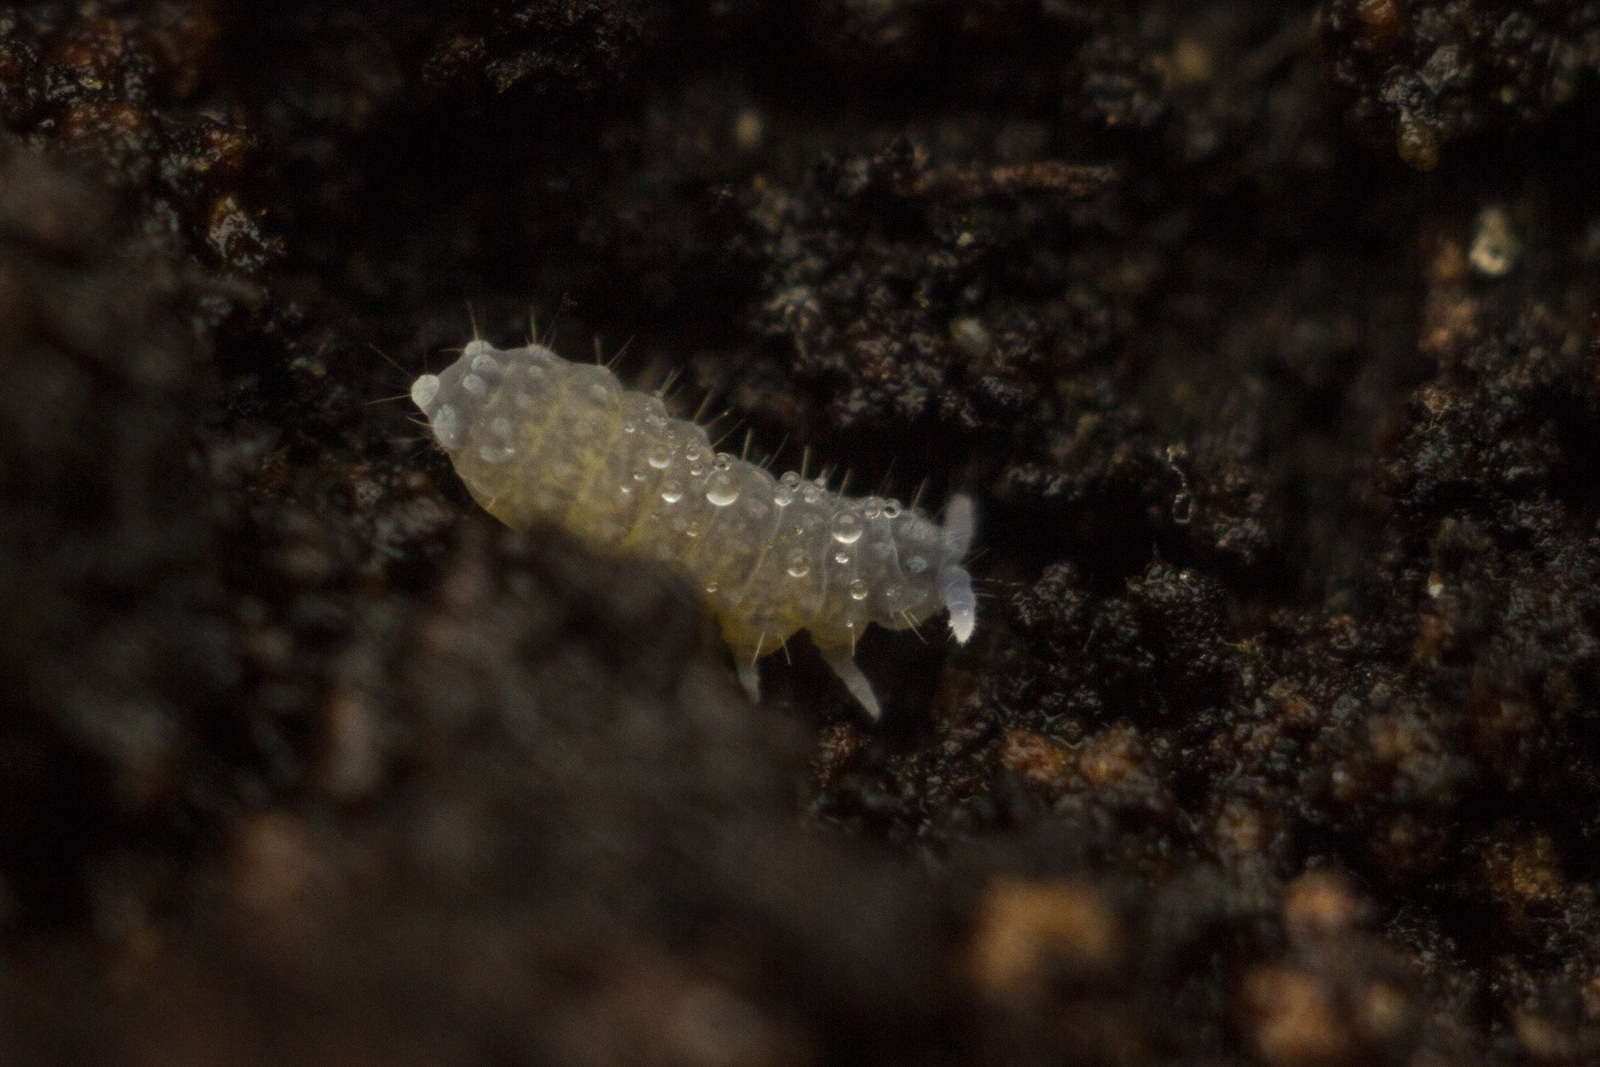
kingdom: Animalia
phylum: Arthropoda
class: Collembola
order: Poduromorpha
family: Neanuridae
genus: Neanura
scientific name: Neanura muscorum
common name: Springtail
